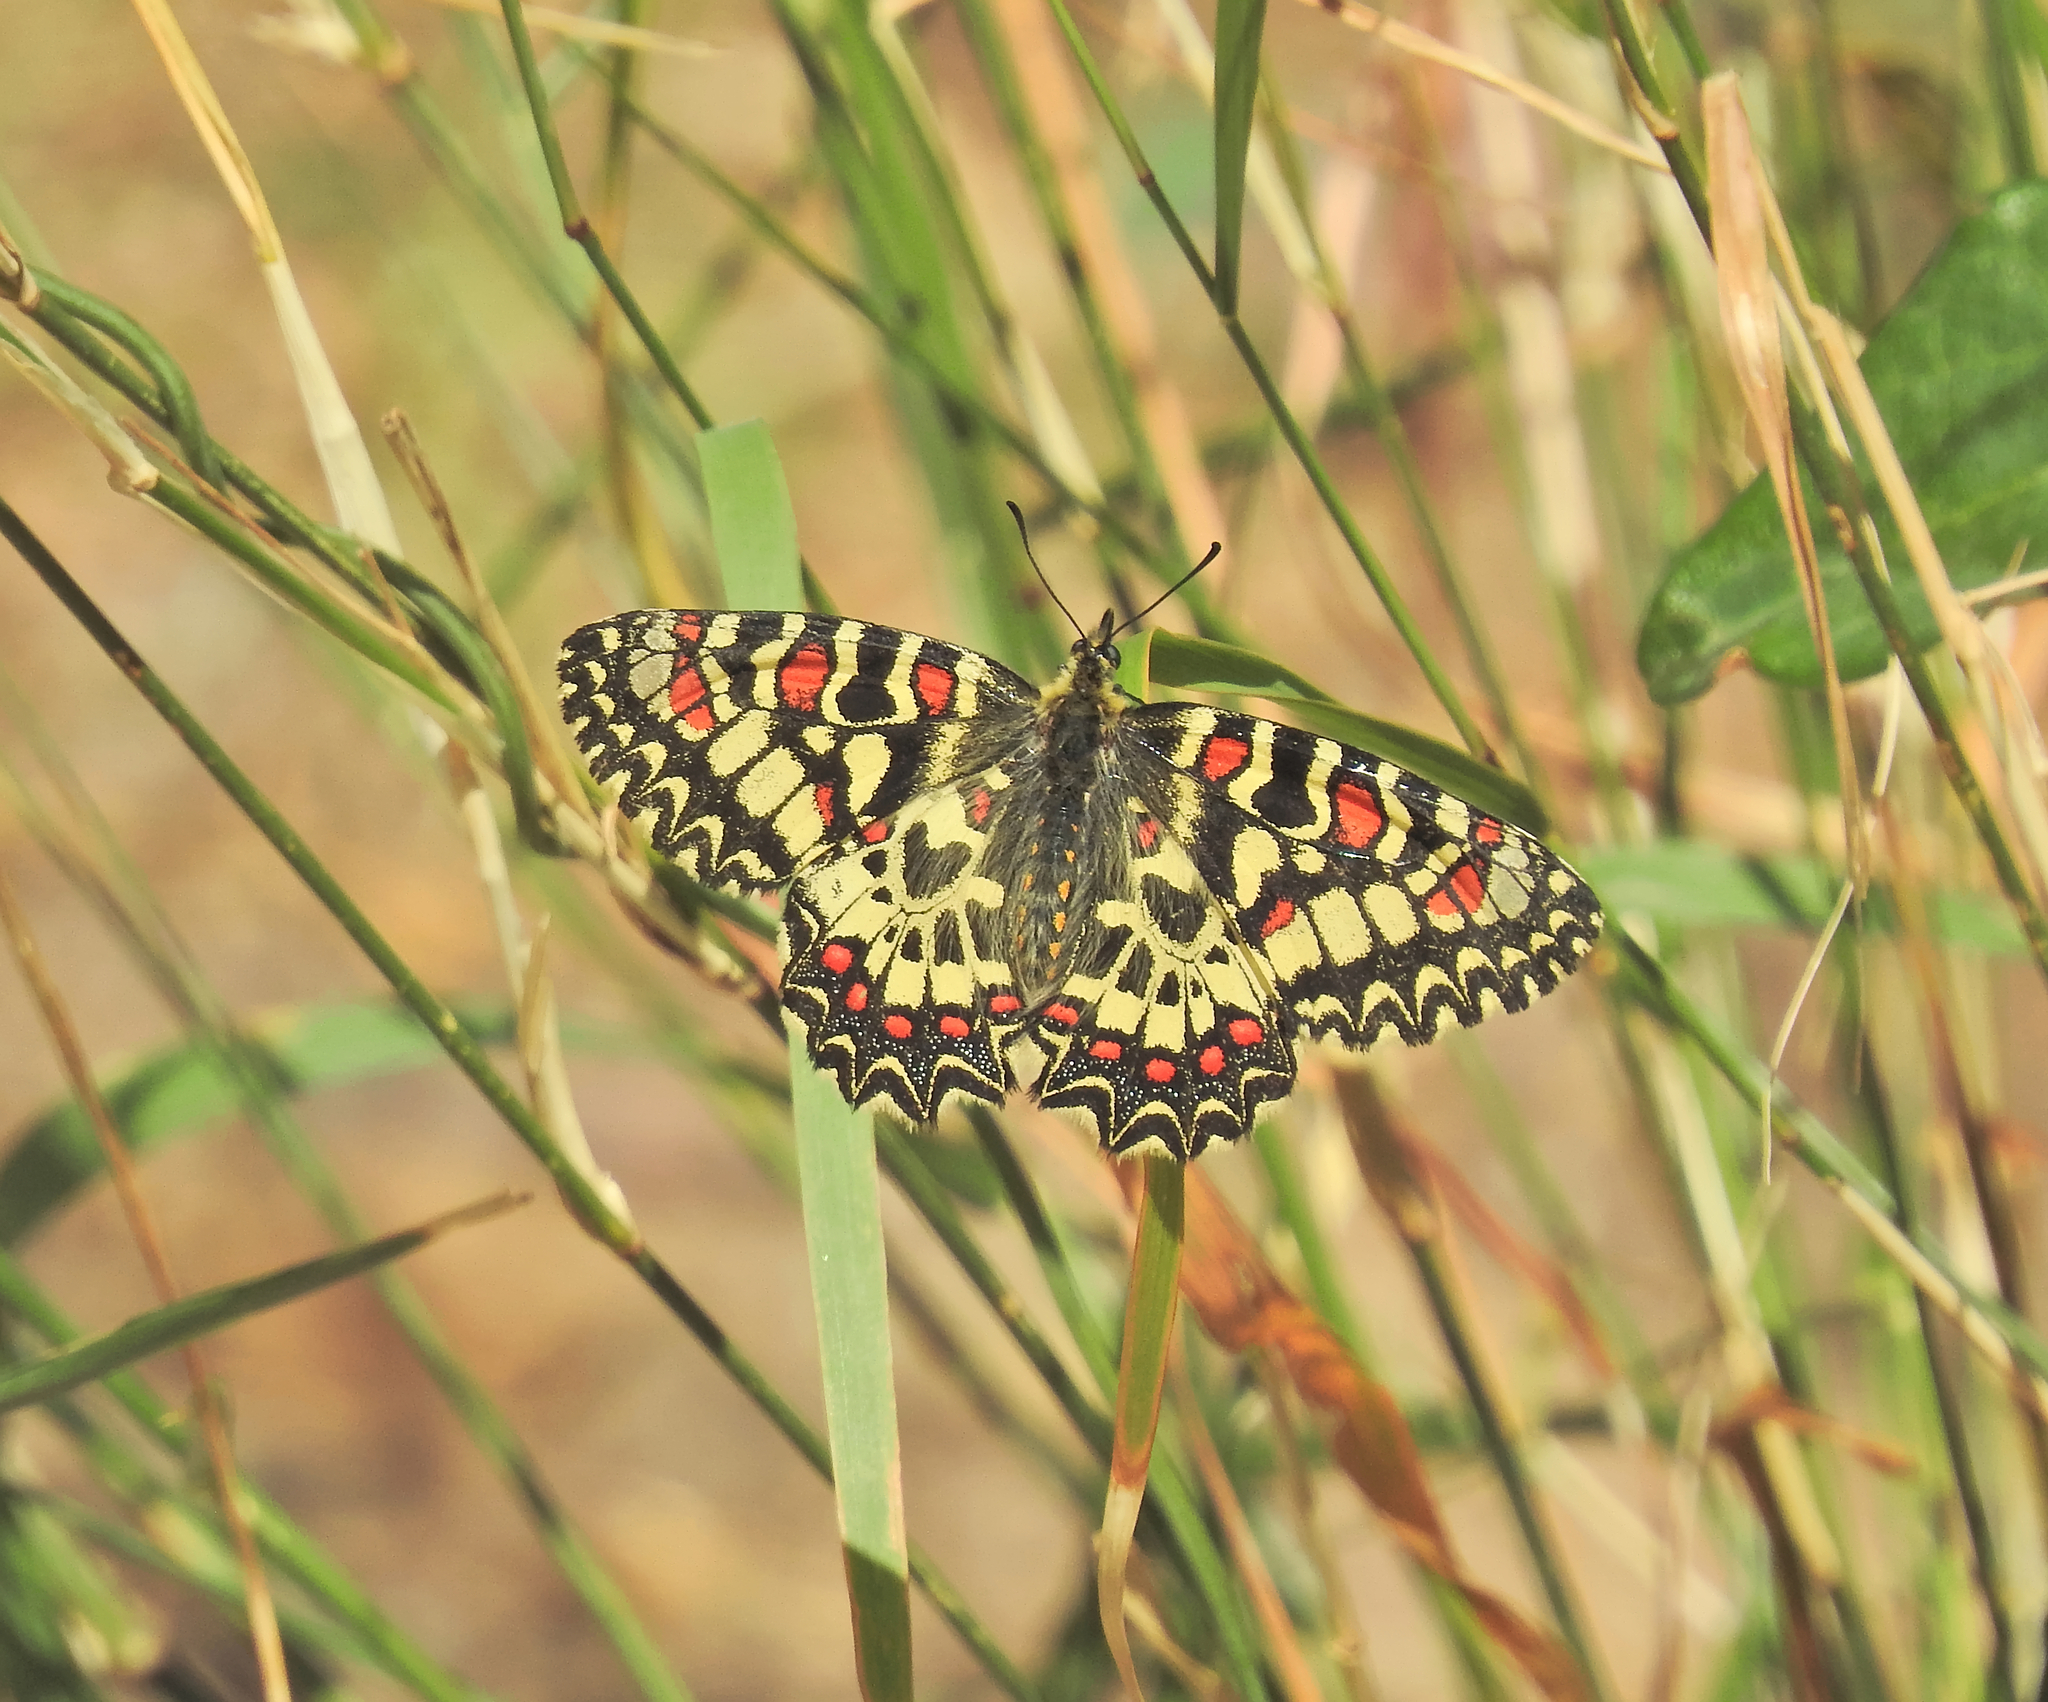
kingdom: Animalia
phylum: Arthropoda
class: Insecta
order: Lepidoptera
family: Papilionidae
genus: Zerynthia
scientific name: Zerynthia rumina
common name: Spanish festoon
